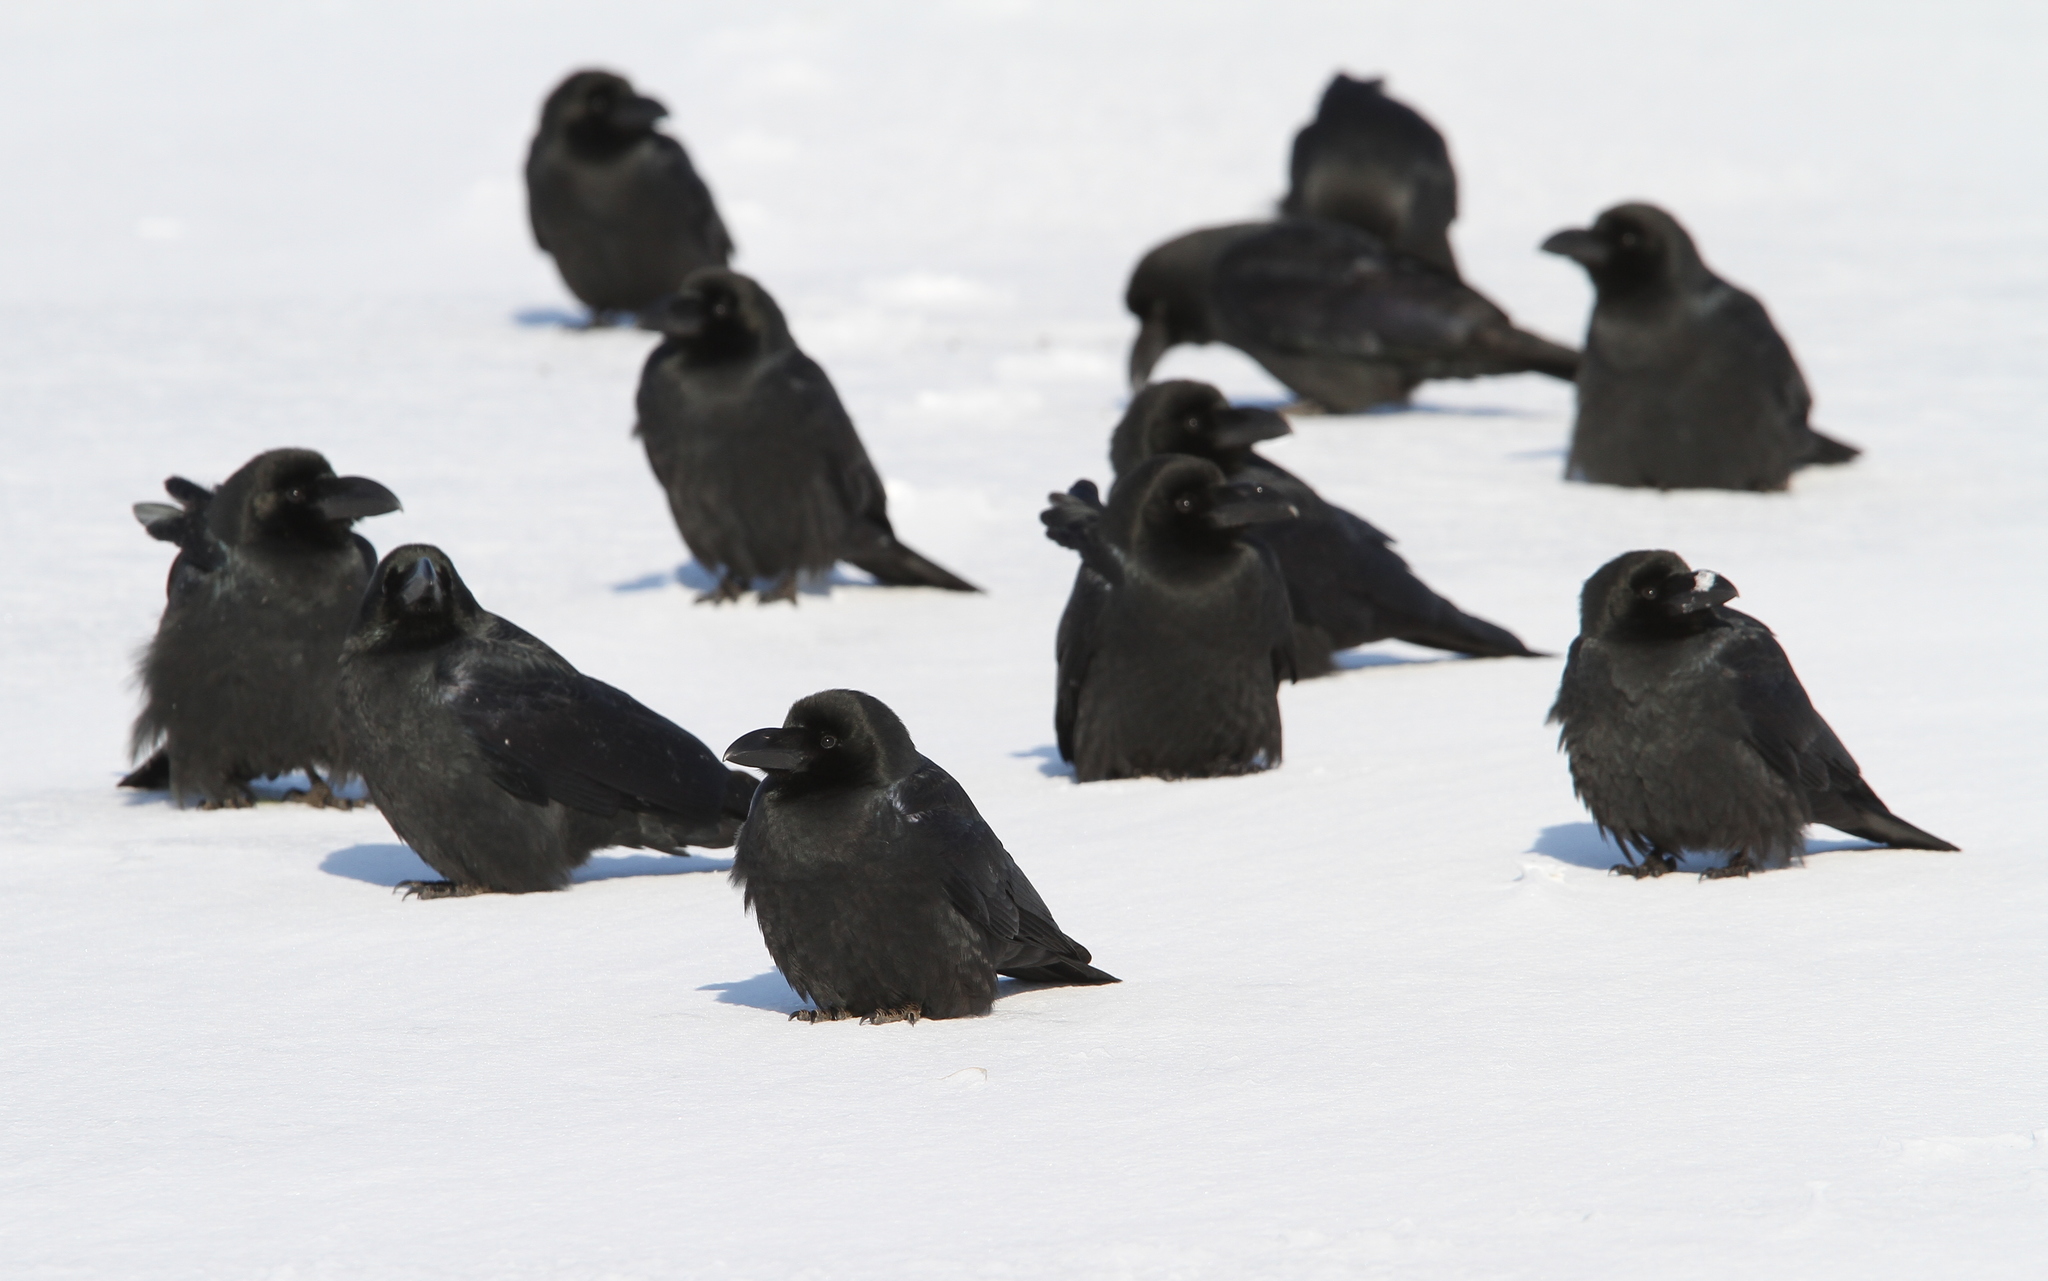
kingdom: Animalia
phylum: Chordata
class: Aves
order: Passeriformes
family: Corvidae
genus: Corvus
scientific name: Corvus macrorhynchos
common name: Large-billed crow
